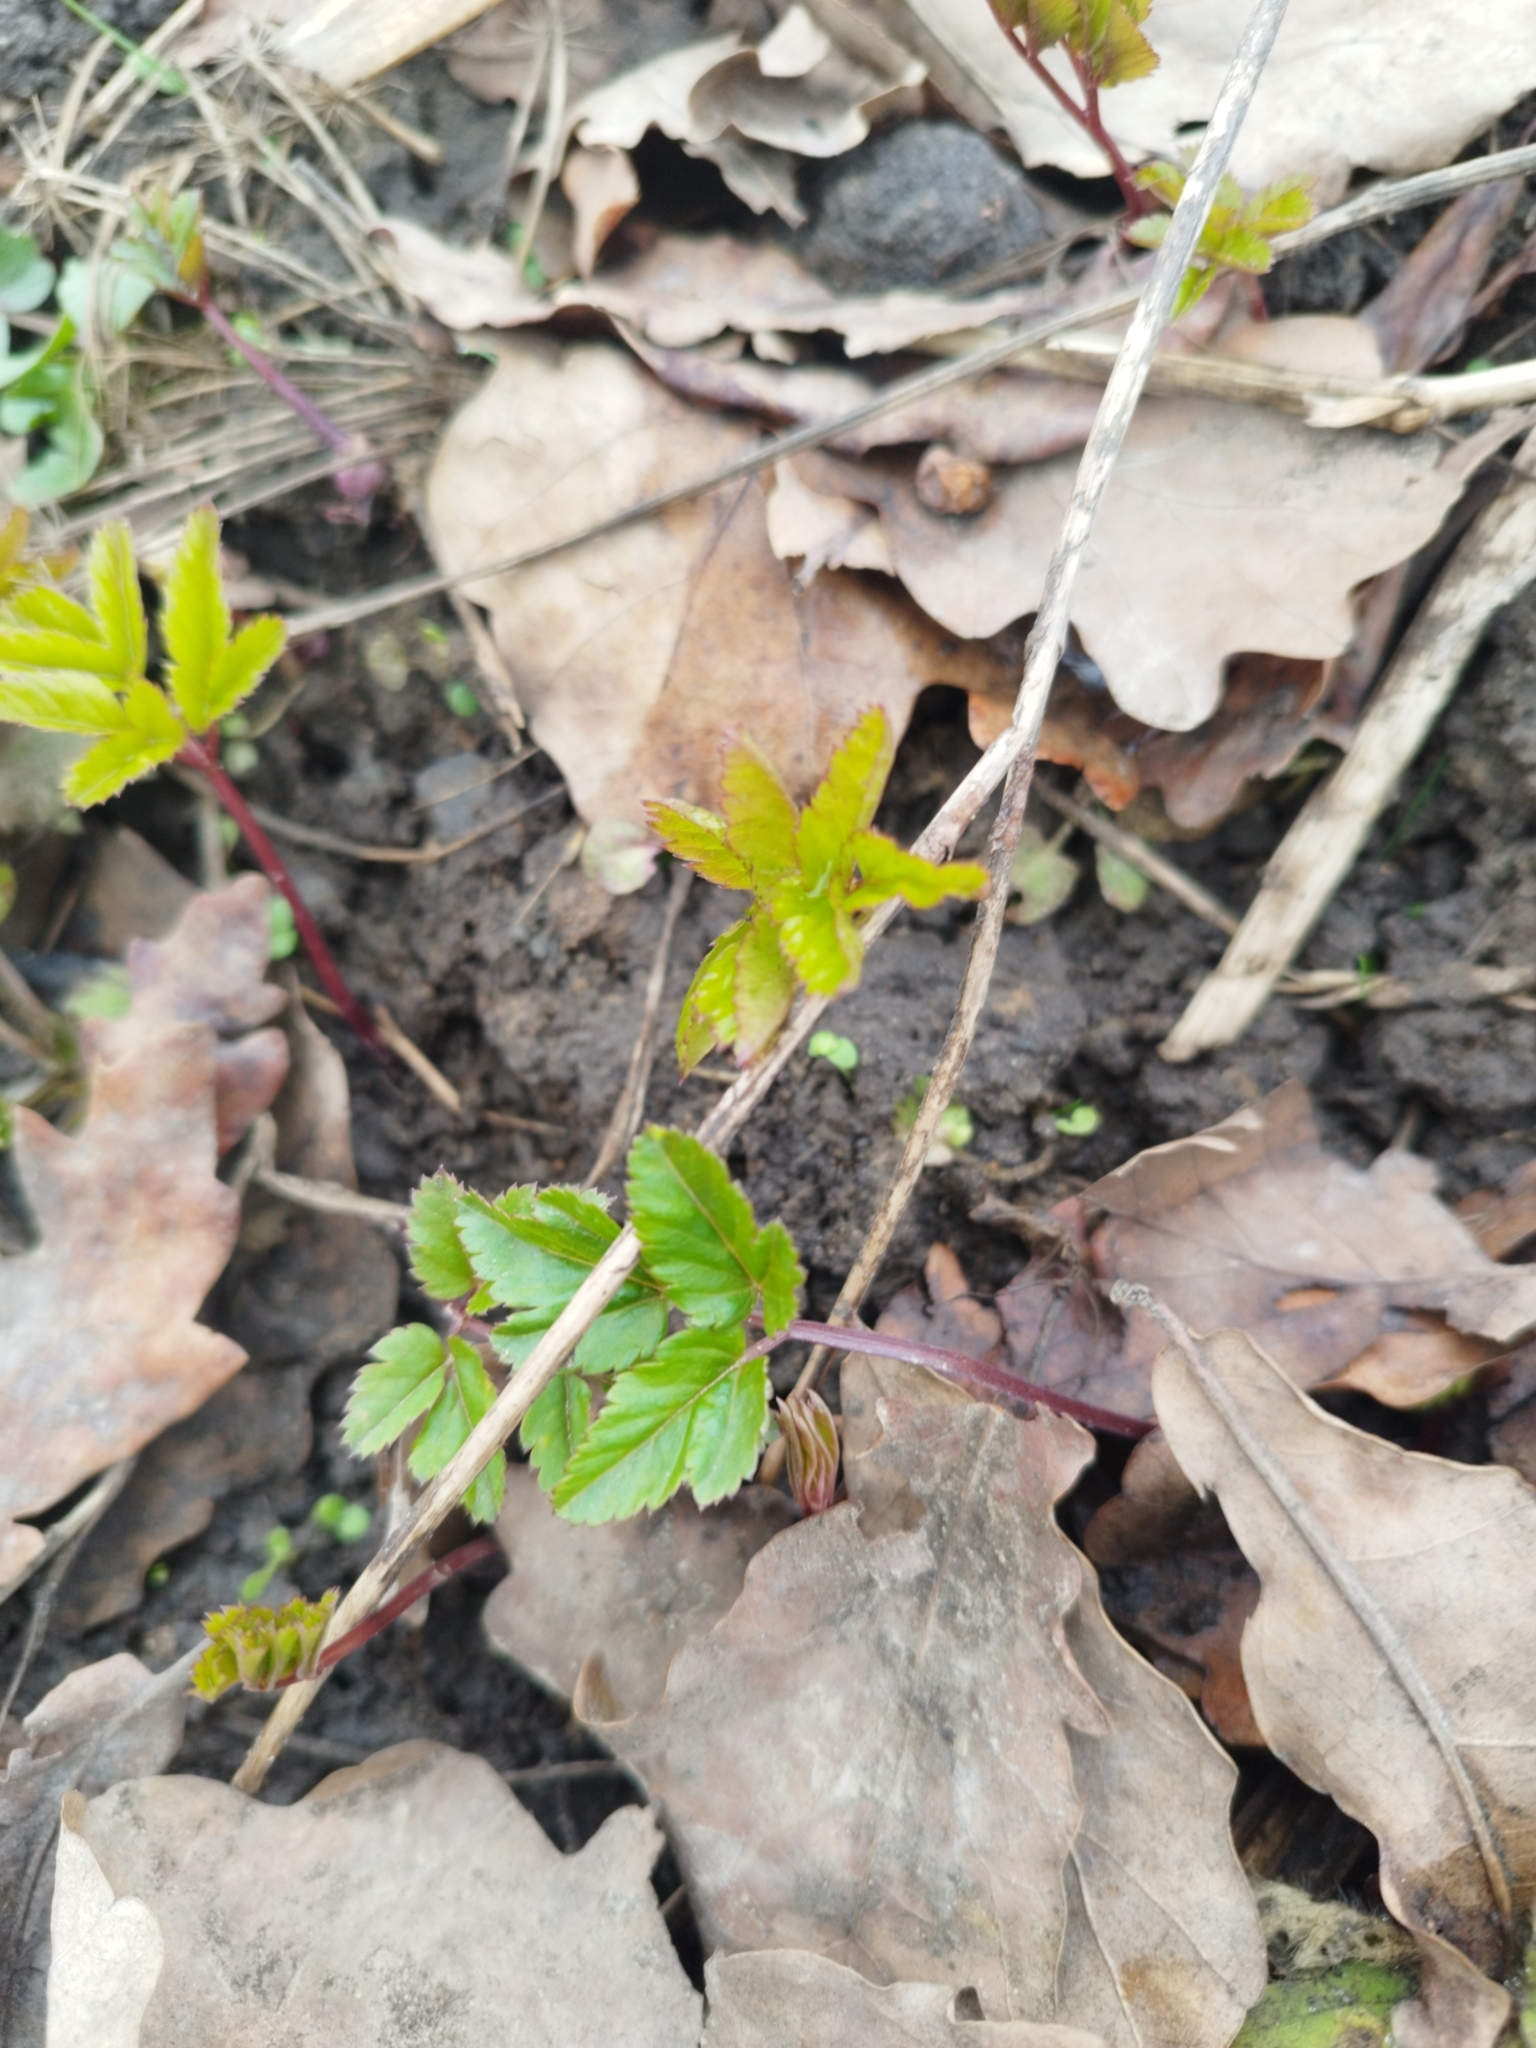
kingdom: Plantae
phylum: Tracheophyta
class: Magnoliopsida
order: Apiales
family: Apiaceae
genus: Aegopodium
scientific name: Aegopodium podagraria
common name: Ground-elder
